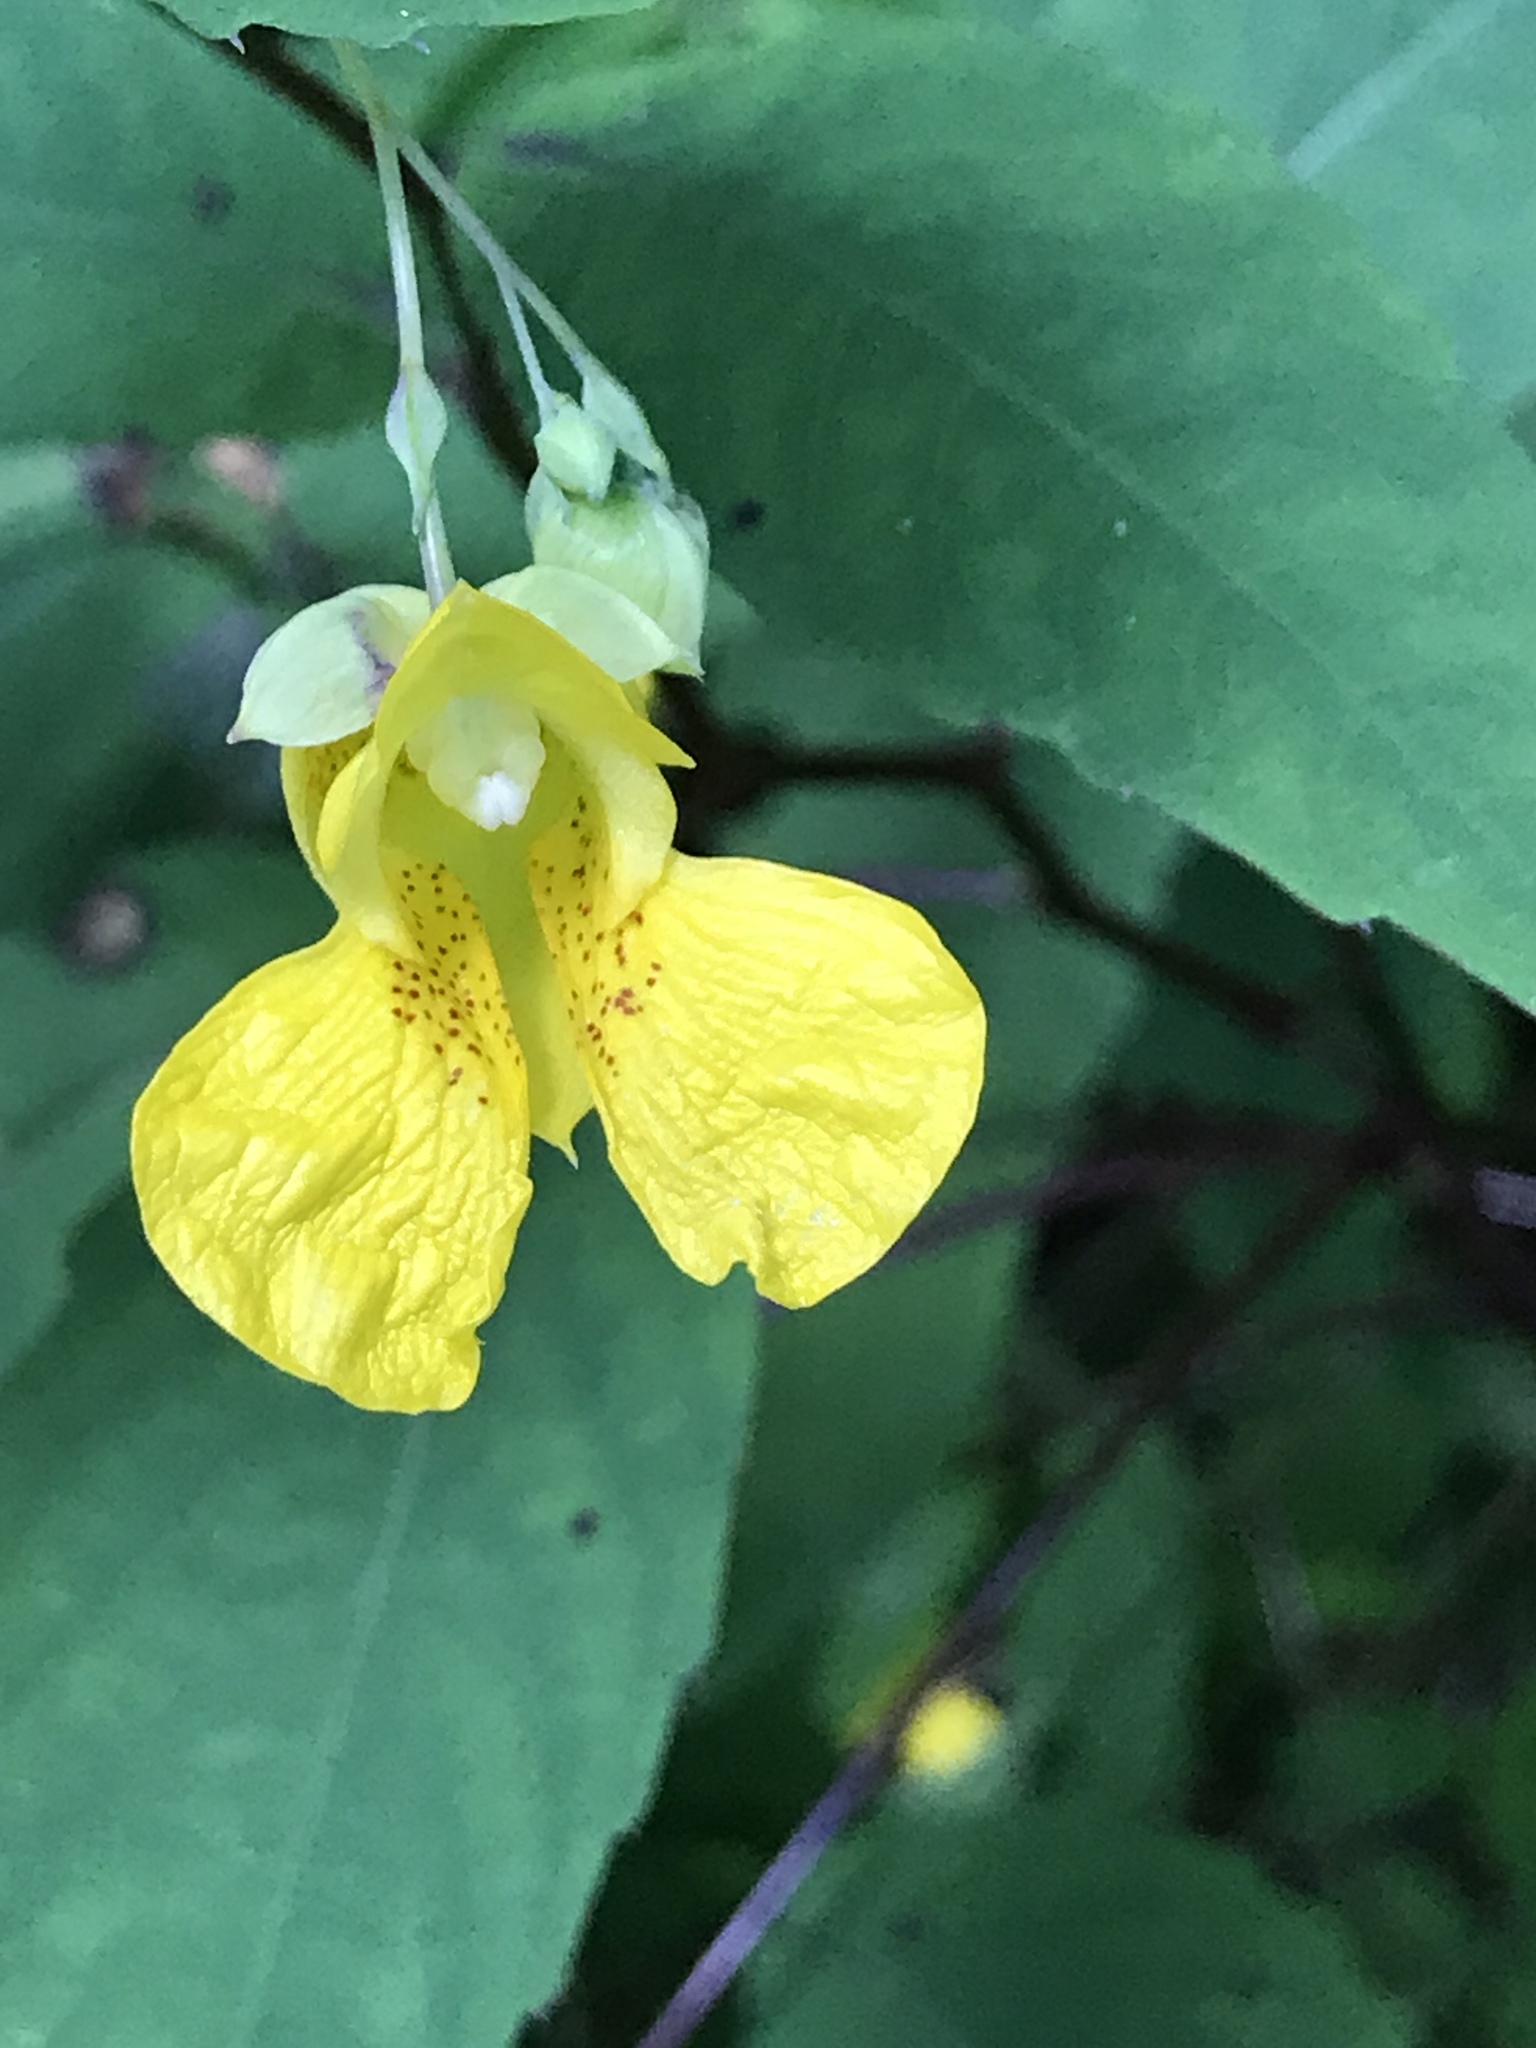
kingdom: Plantae
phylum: Tracheophyta
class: Magnoliopsida
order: Ericales
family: Balsaminaceae
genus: Impatiens
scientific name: Impatiens pallida
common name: Pale snapweed
